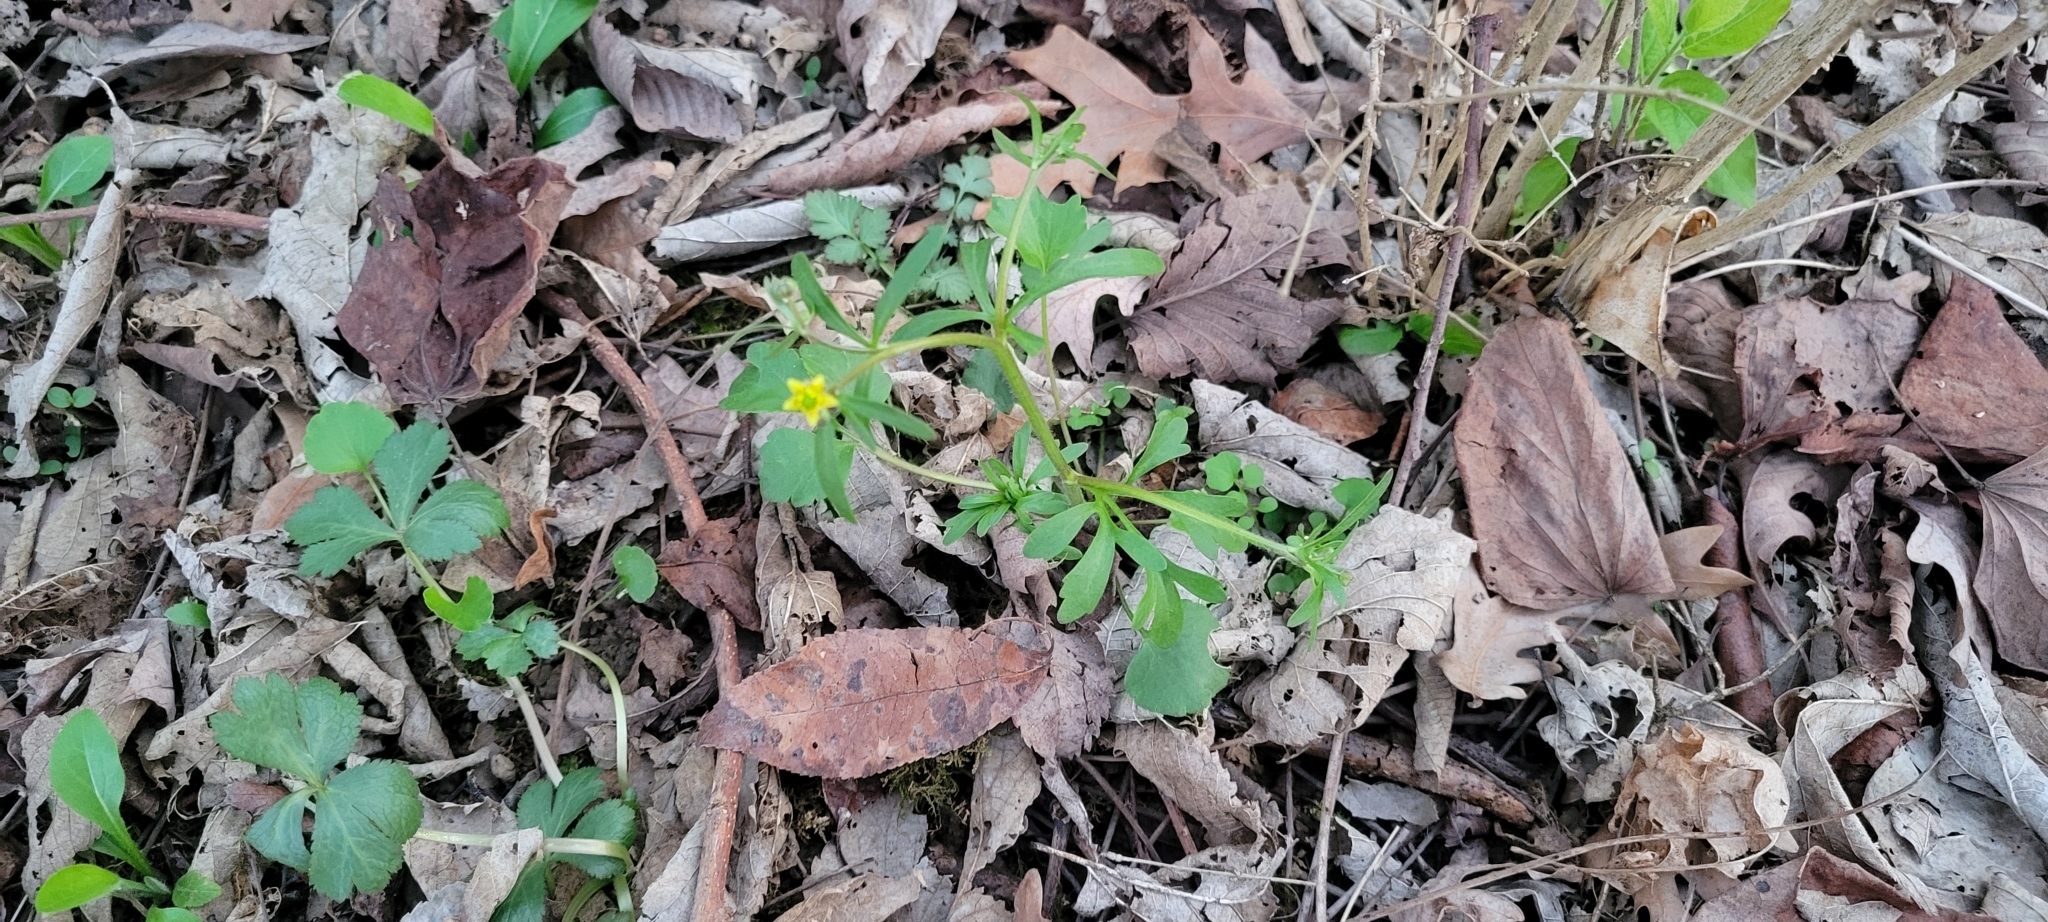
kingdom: Plantae
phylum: Tracheophyta
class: Magnoliopsida
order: Ranunculales
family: Ranunculaceae
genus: Ranunculus
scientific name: Ranunculus micranthus
